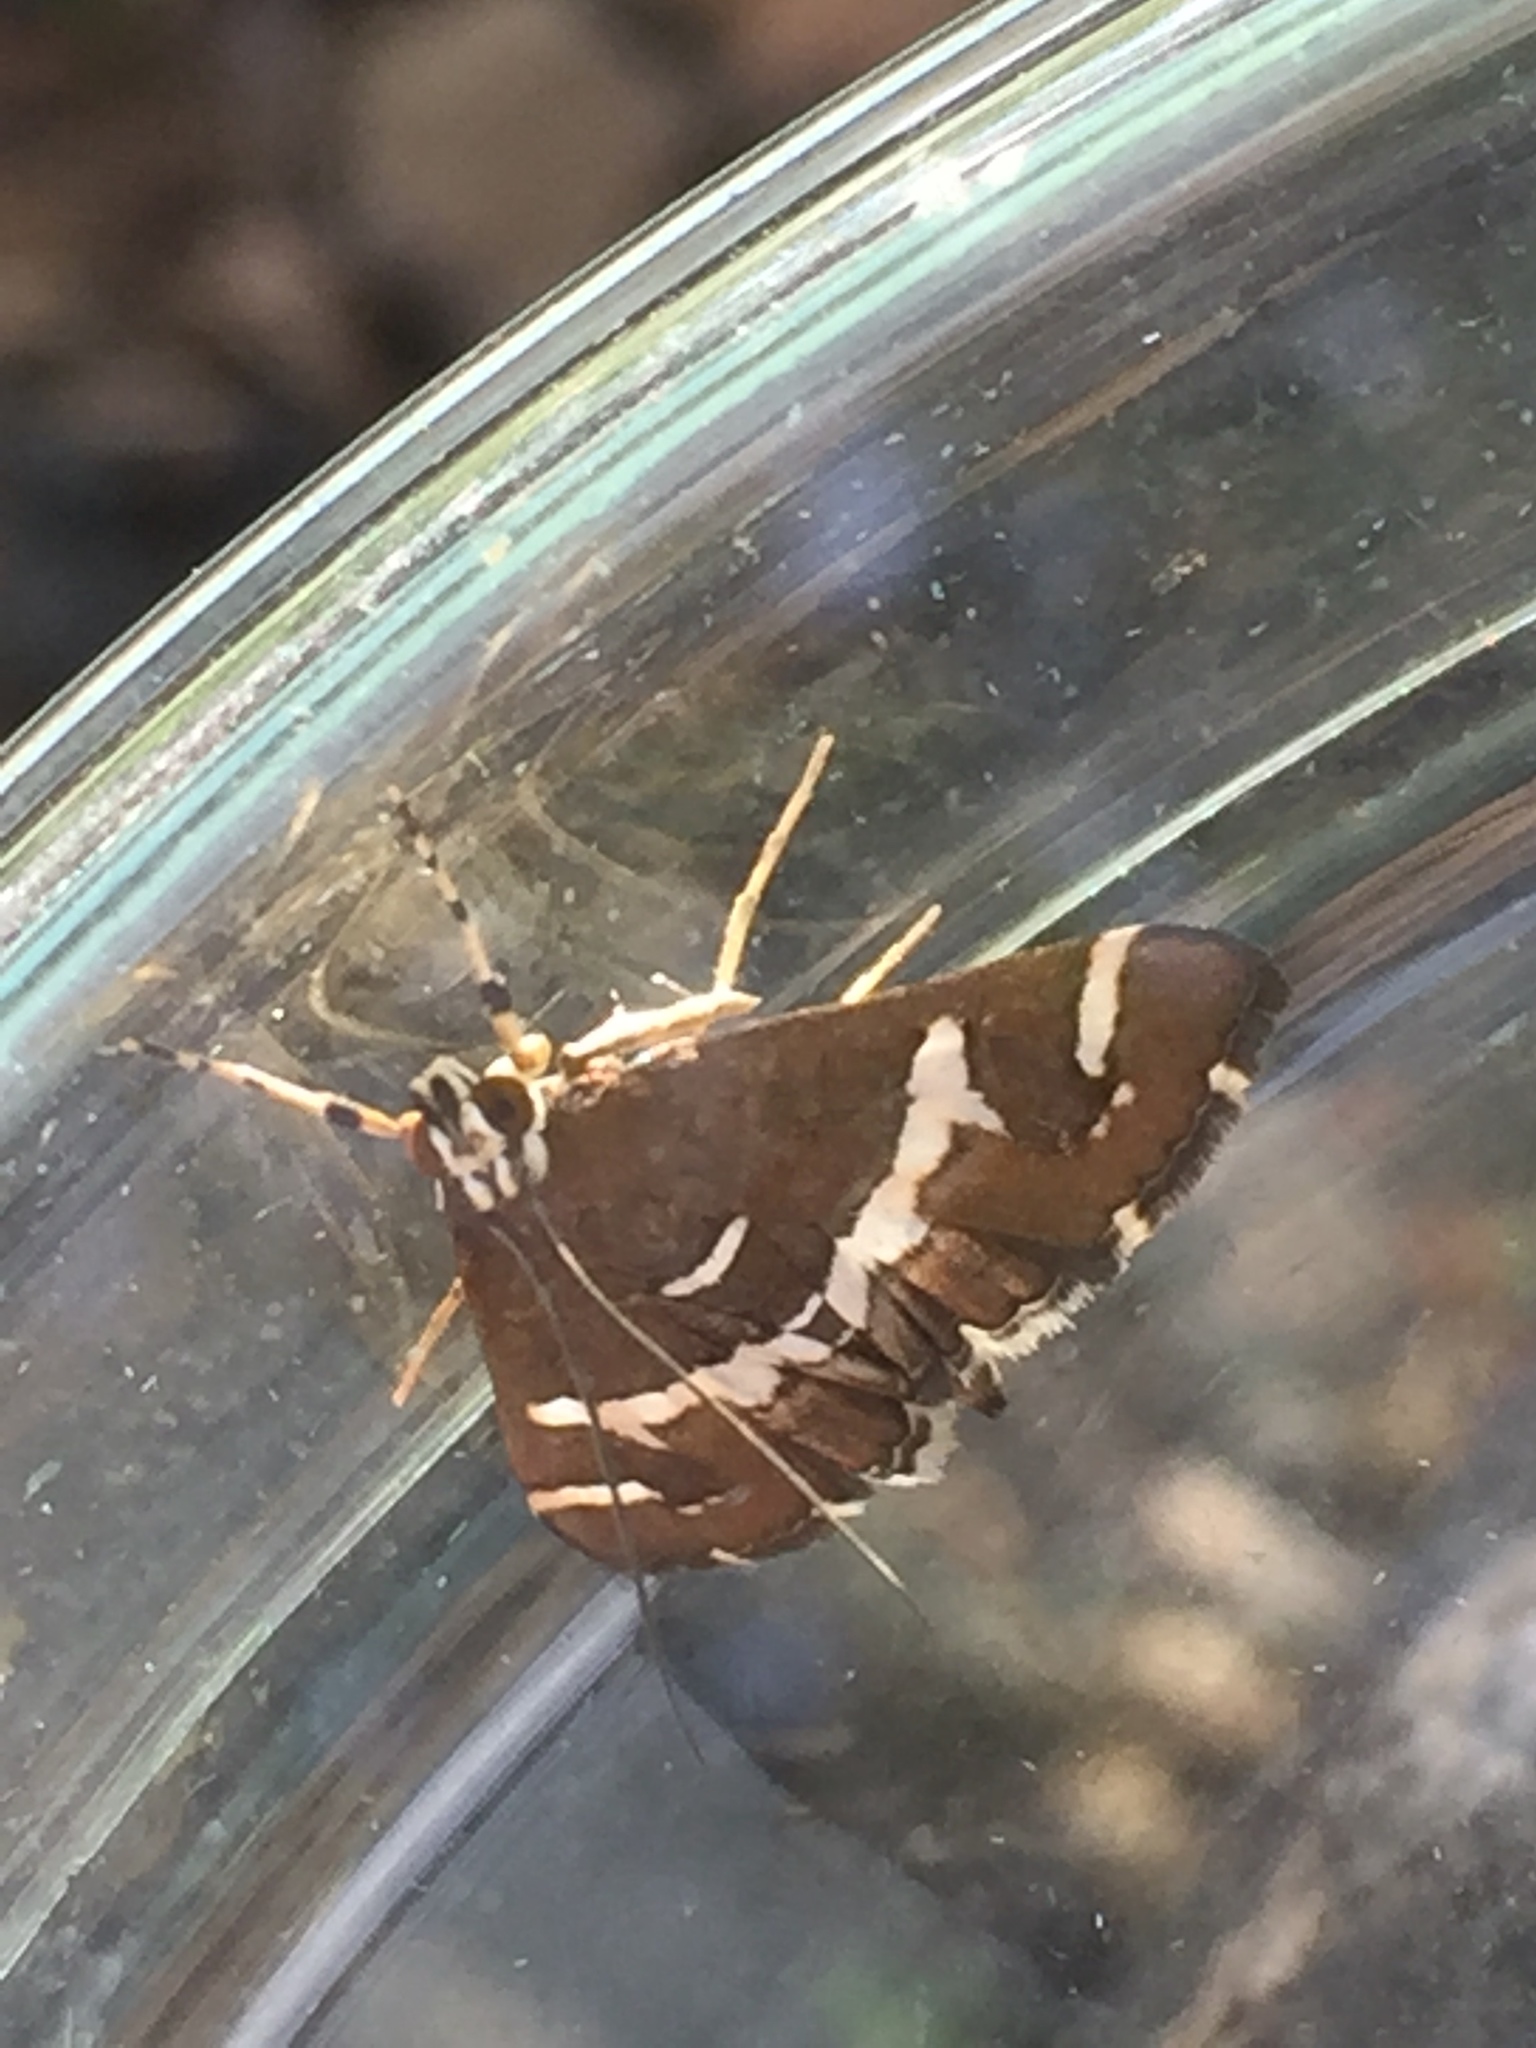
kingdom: Animalia
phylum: Arthropoda
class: Insecta
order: Lepidoptera
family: Crambidae
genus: Spoladea
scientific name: Spoladea recurvalis
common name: Beet webworm moth
